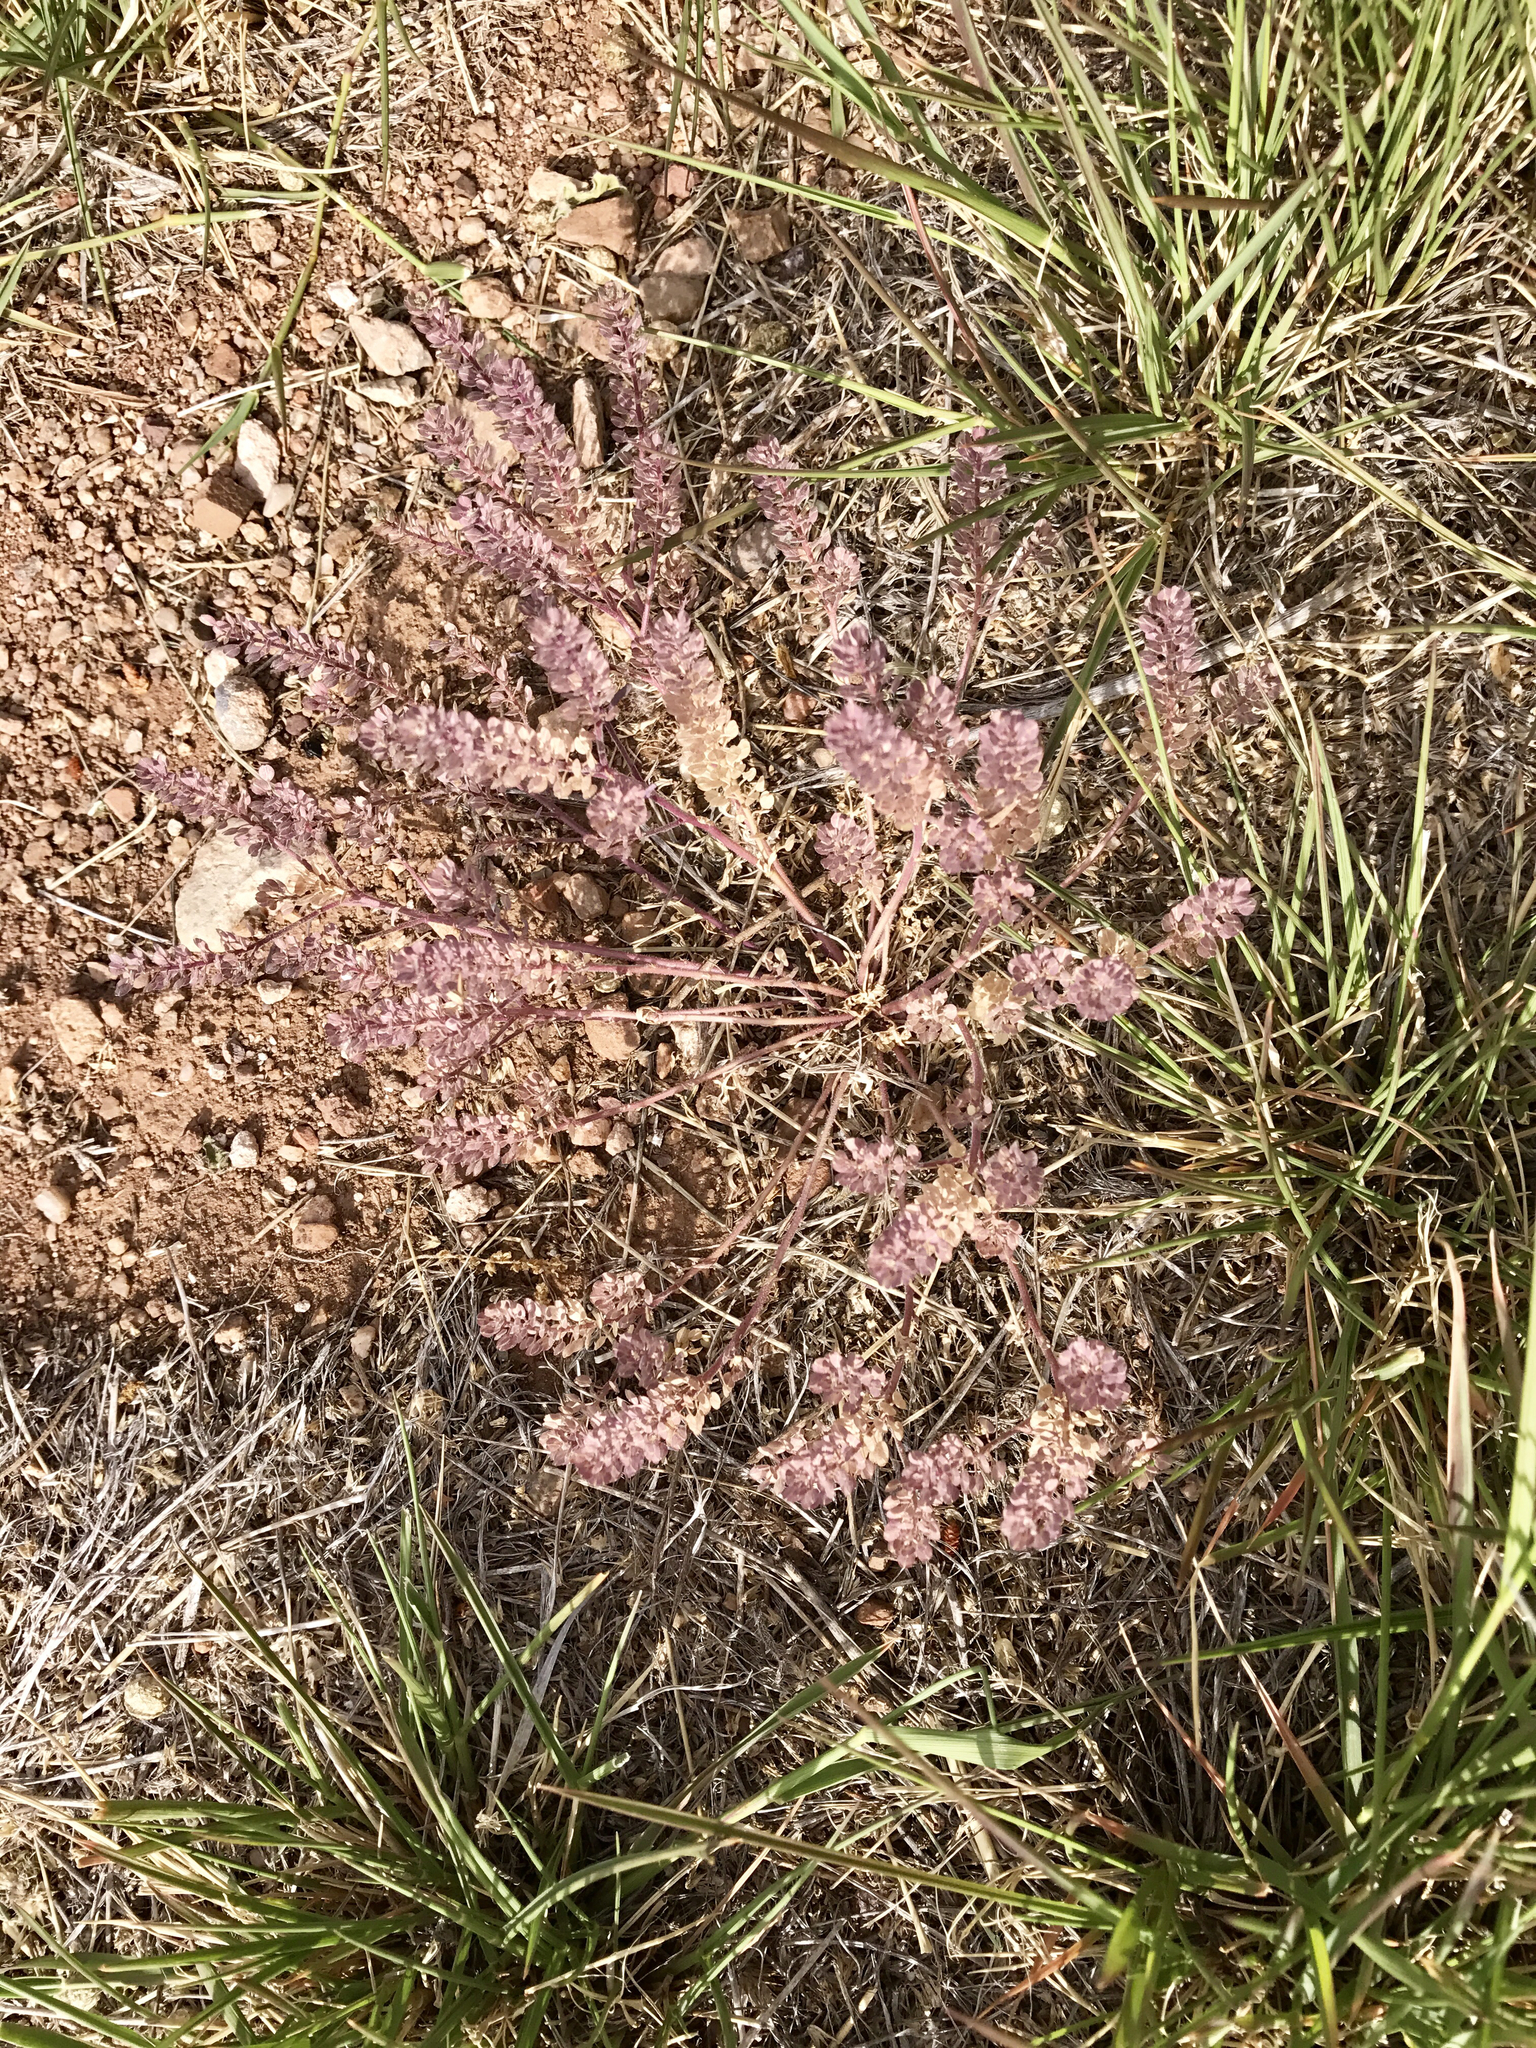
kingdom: Plantae
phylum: Tracheophyta
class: Magnoliopsida
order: Brassicales
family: Brassicaceae
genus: Lepidium
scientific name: Lepidium lasiocarpum
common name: Hairy-pod pepperwort
